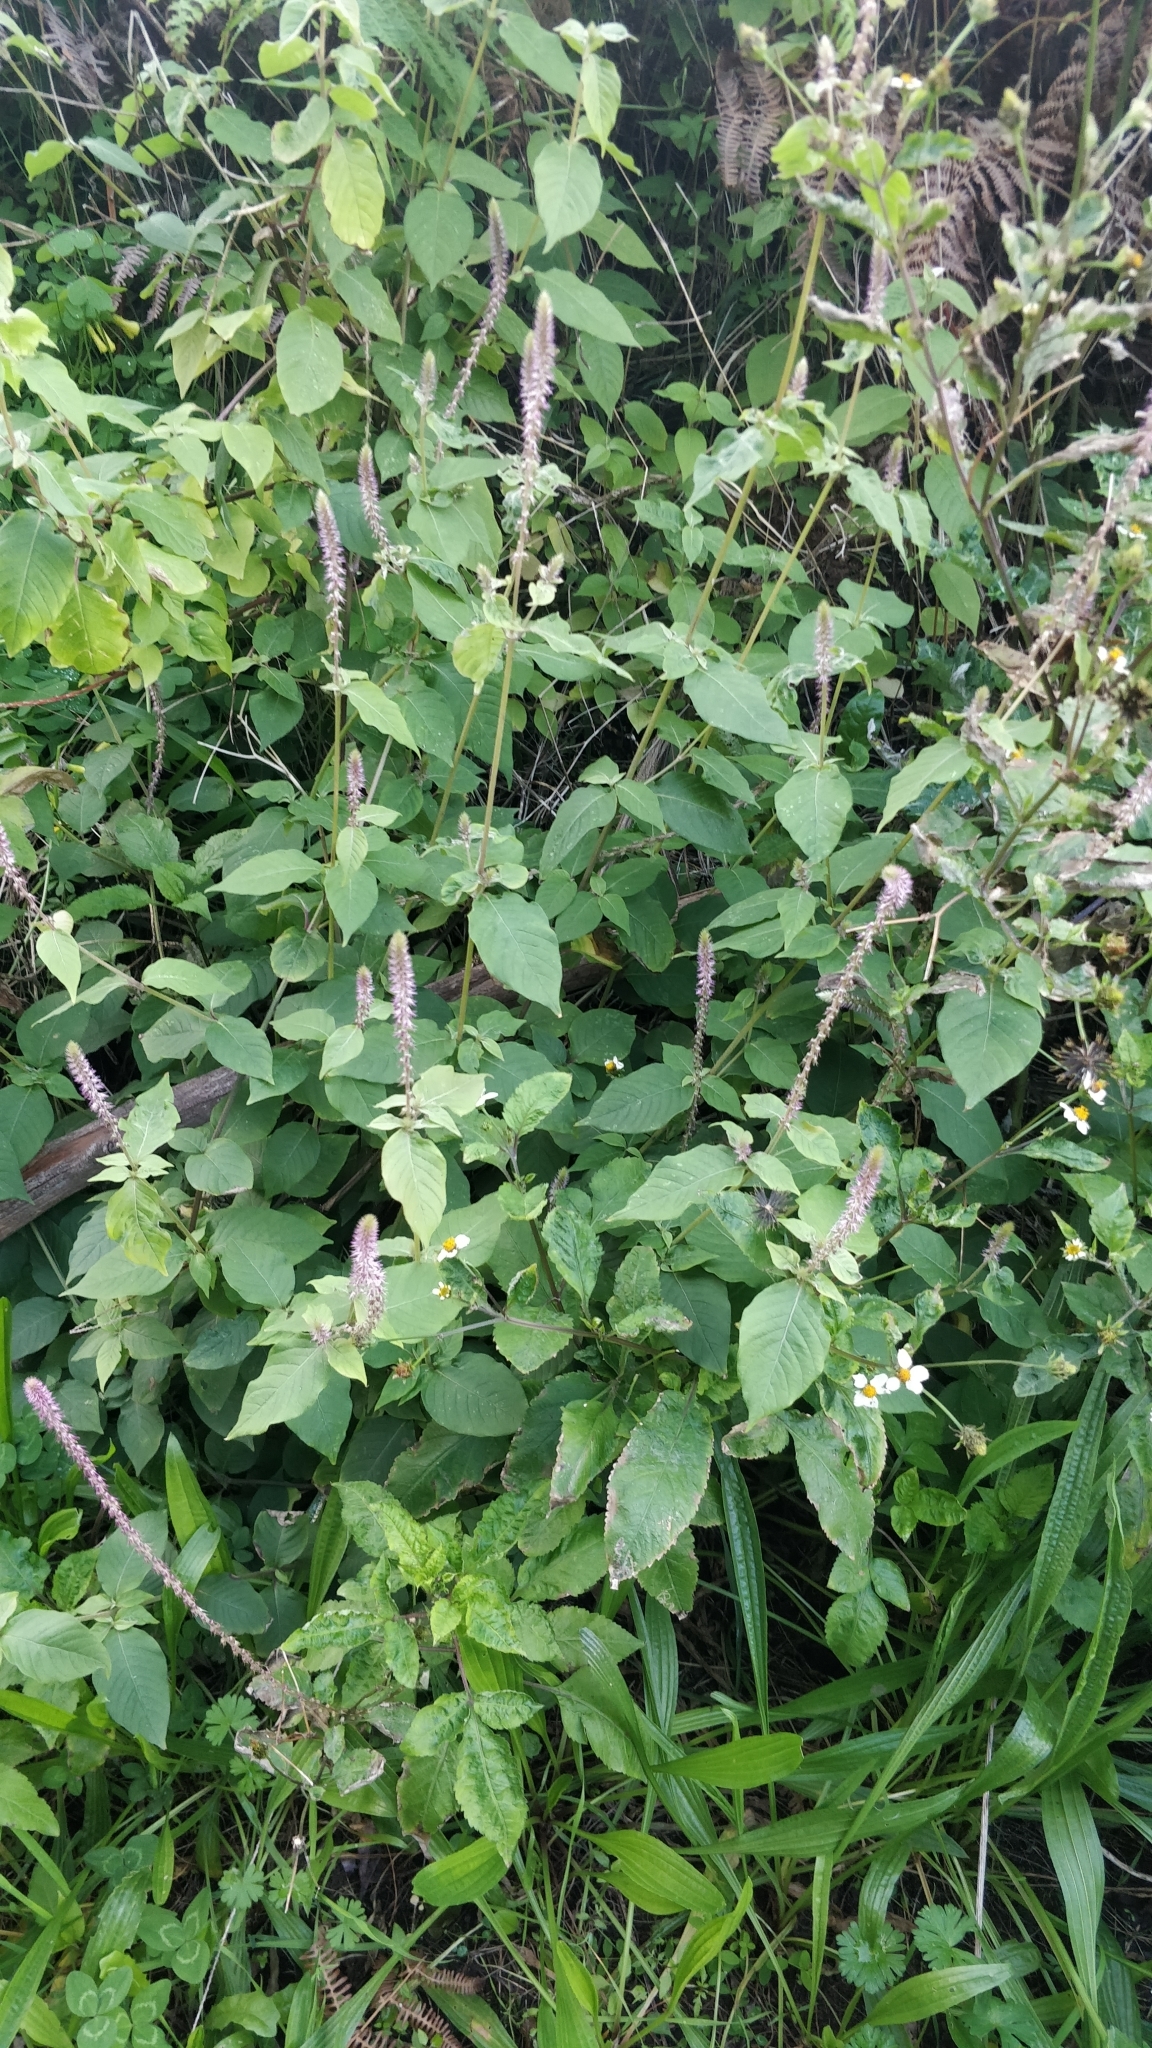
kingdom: Plantae
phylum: Tracheophyta
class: Magnoliopsida
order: Caryophyllales
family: Amaranthaceae
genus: Achyranthes
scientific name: Achyranthes aspera
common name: Devil's horsewhip
